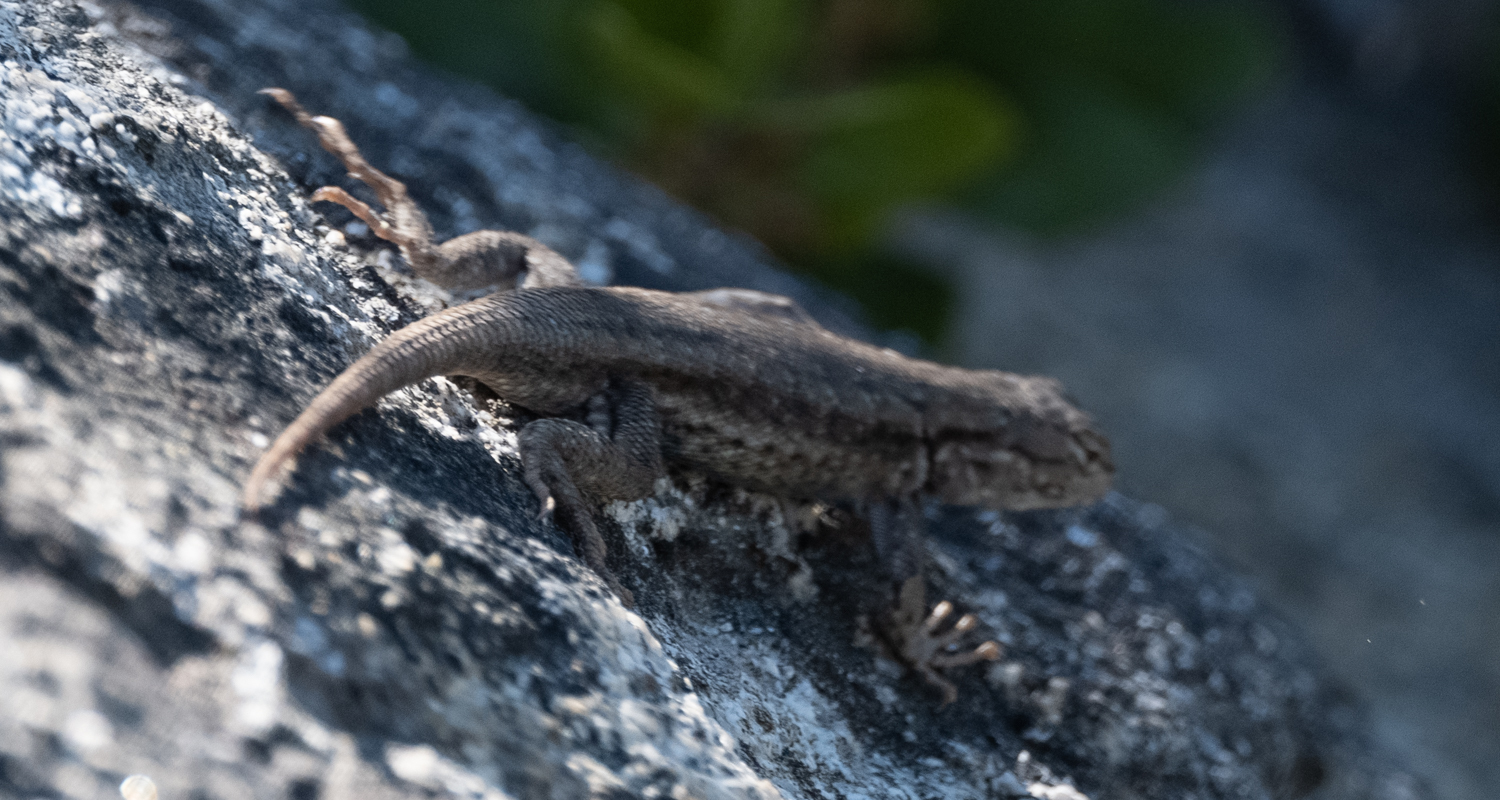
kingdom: Animalia
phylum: Chordata
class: Squamata
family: Phrynosomatidae
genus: Sceloporus
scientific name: Sceloporus graciosus
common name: Sagebrush lizard
